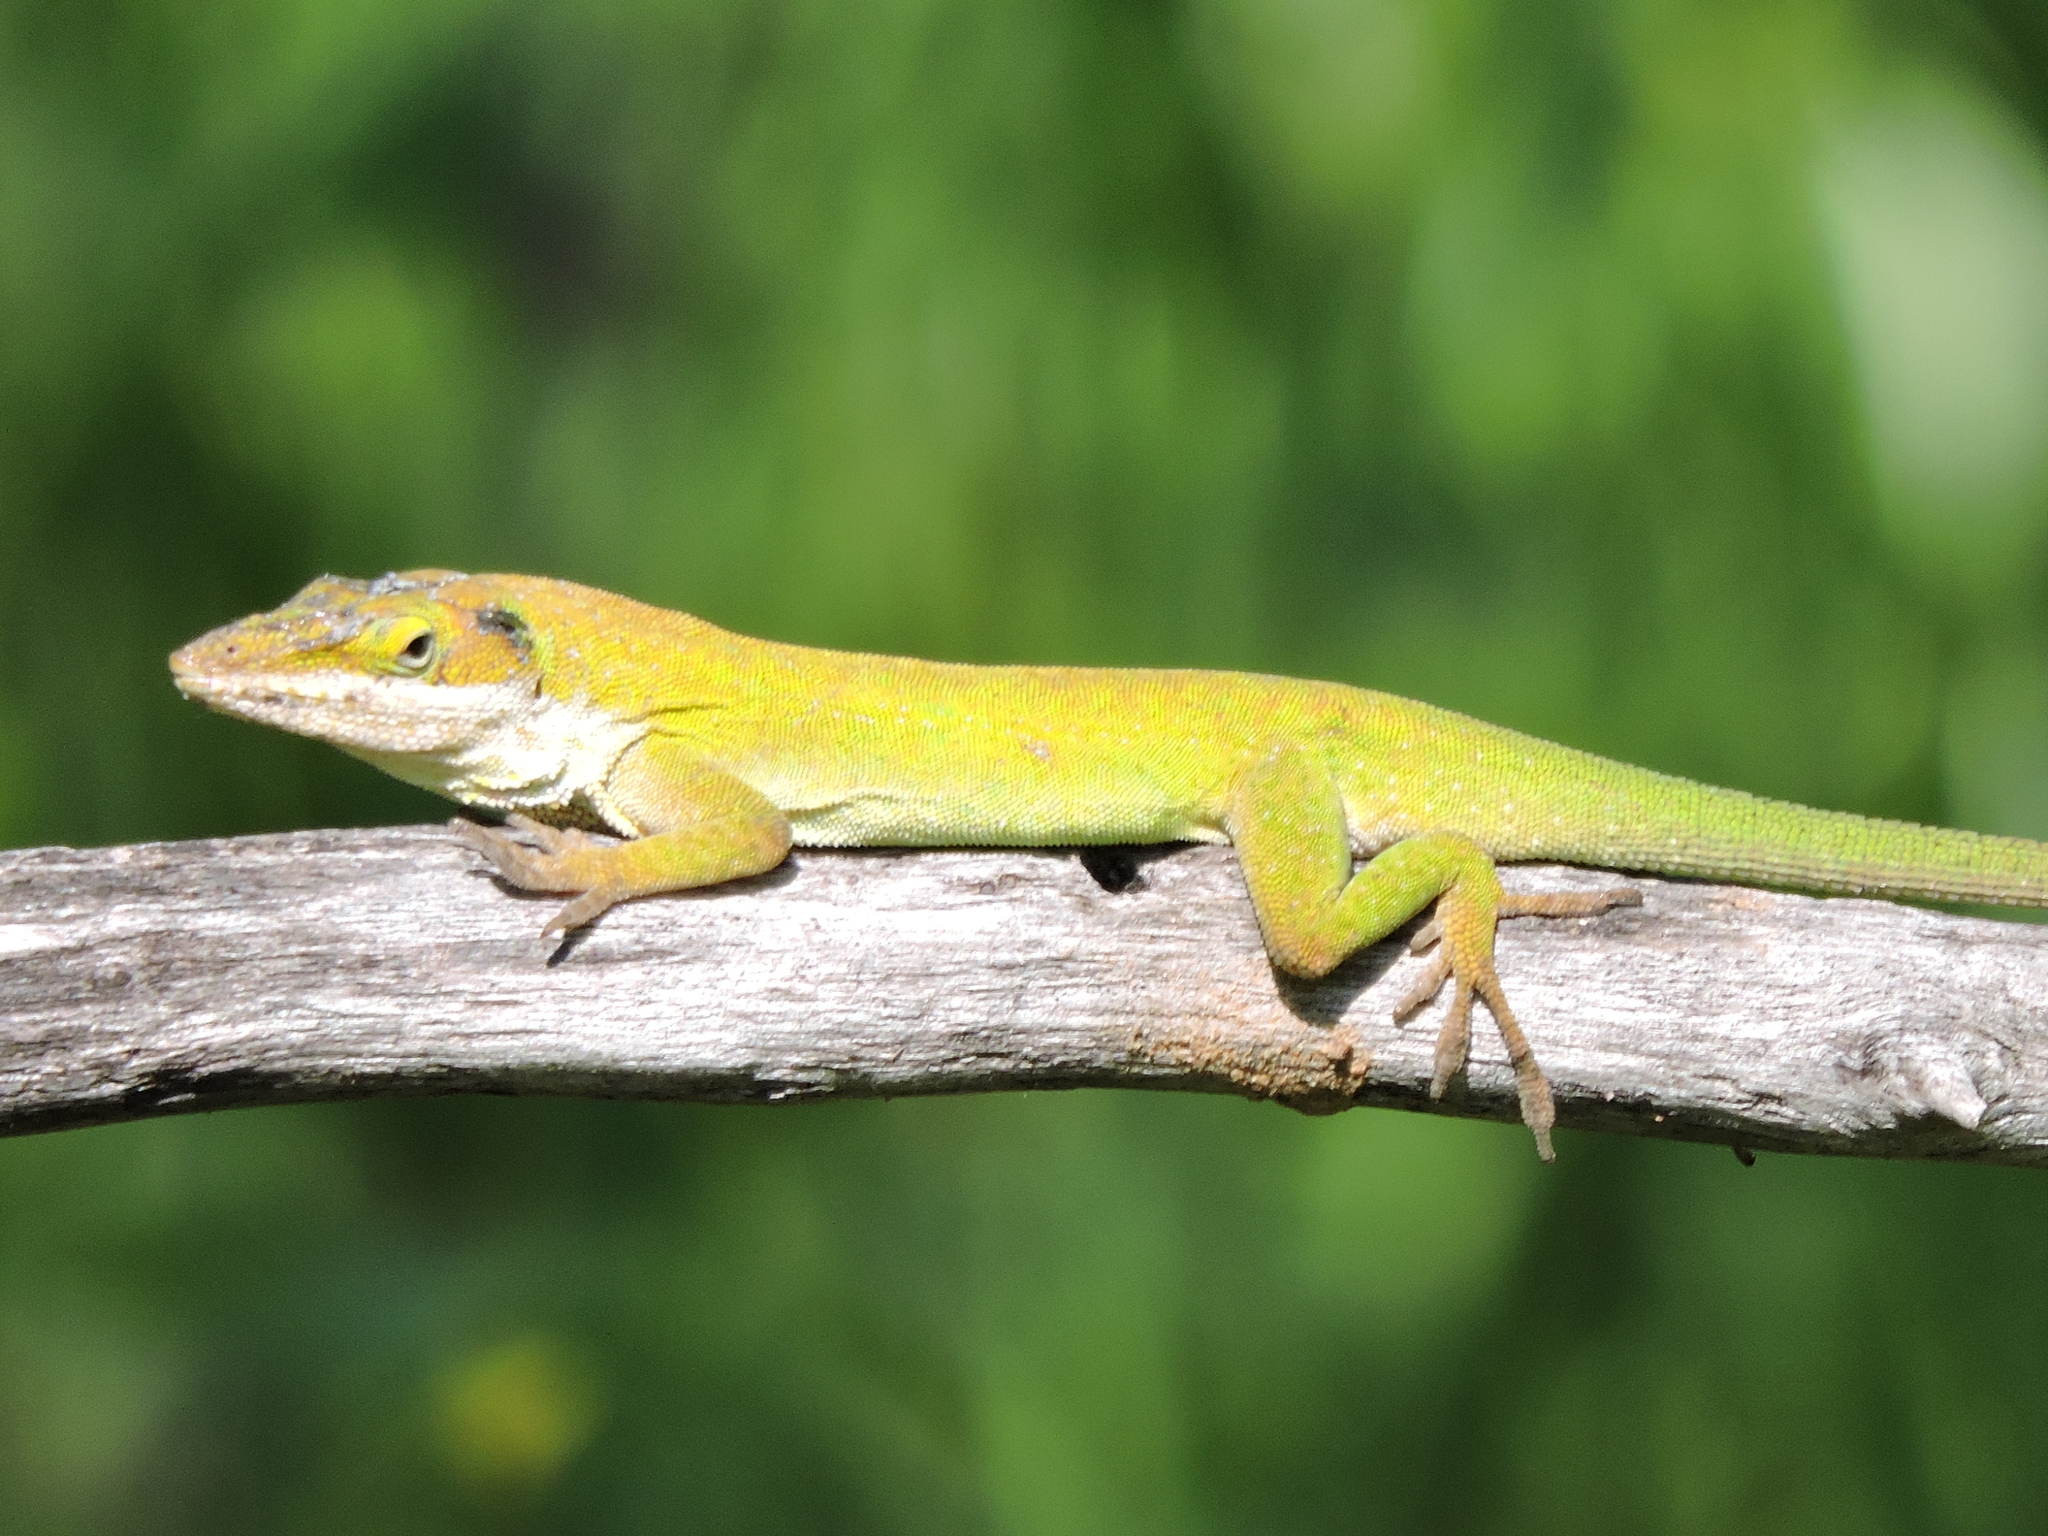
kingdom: Animalia
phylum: Chordata
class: Squamata
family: Dactyloidae
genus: Anolis
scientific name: Anolis carolinensis
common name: Green anole
